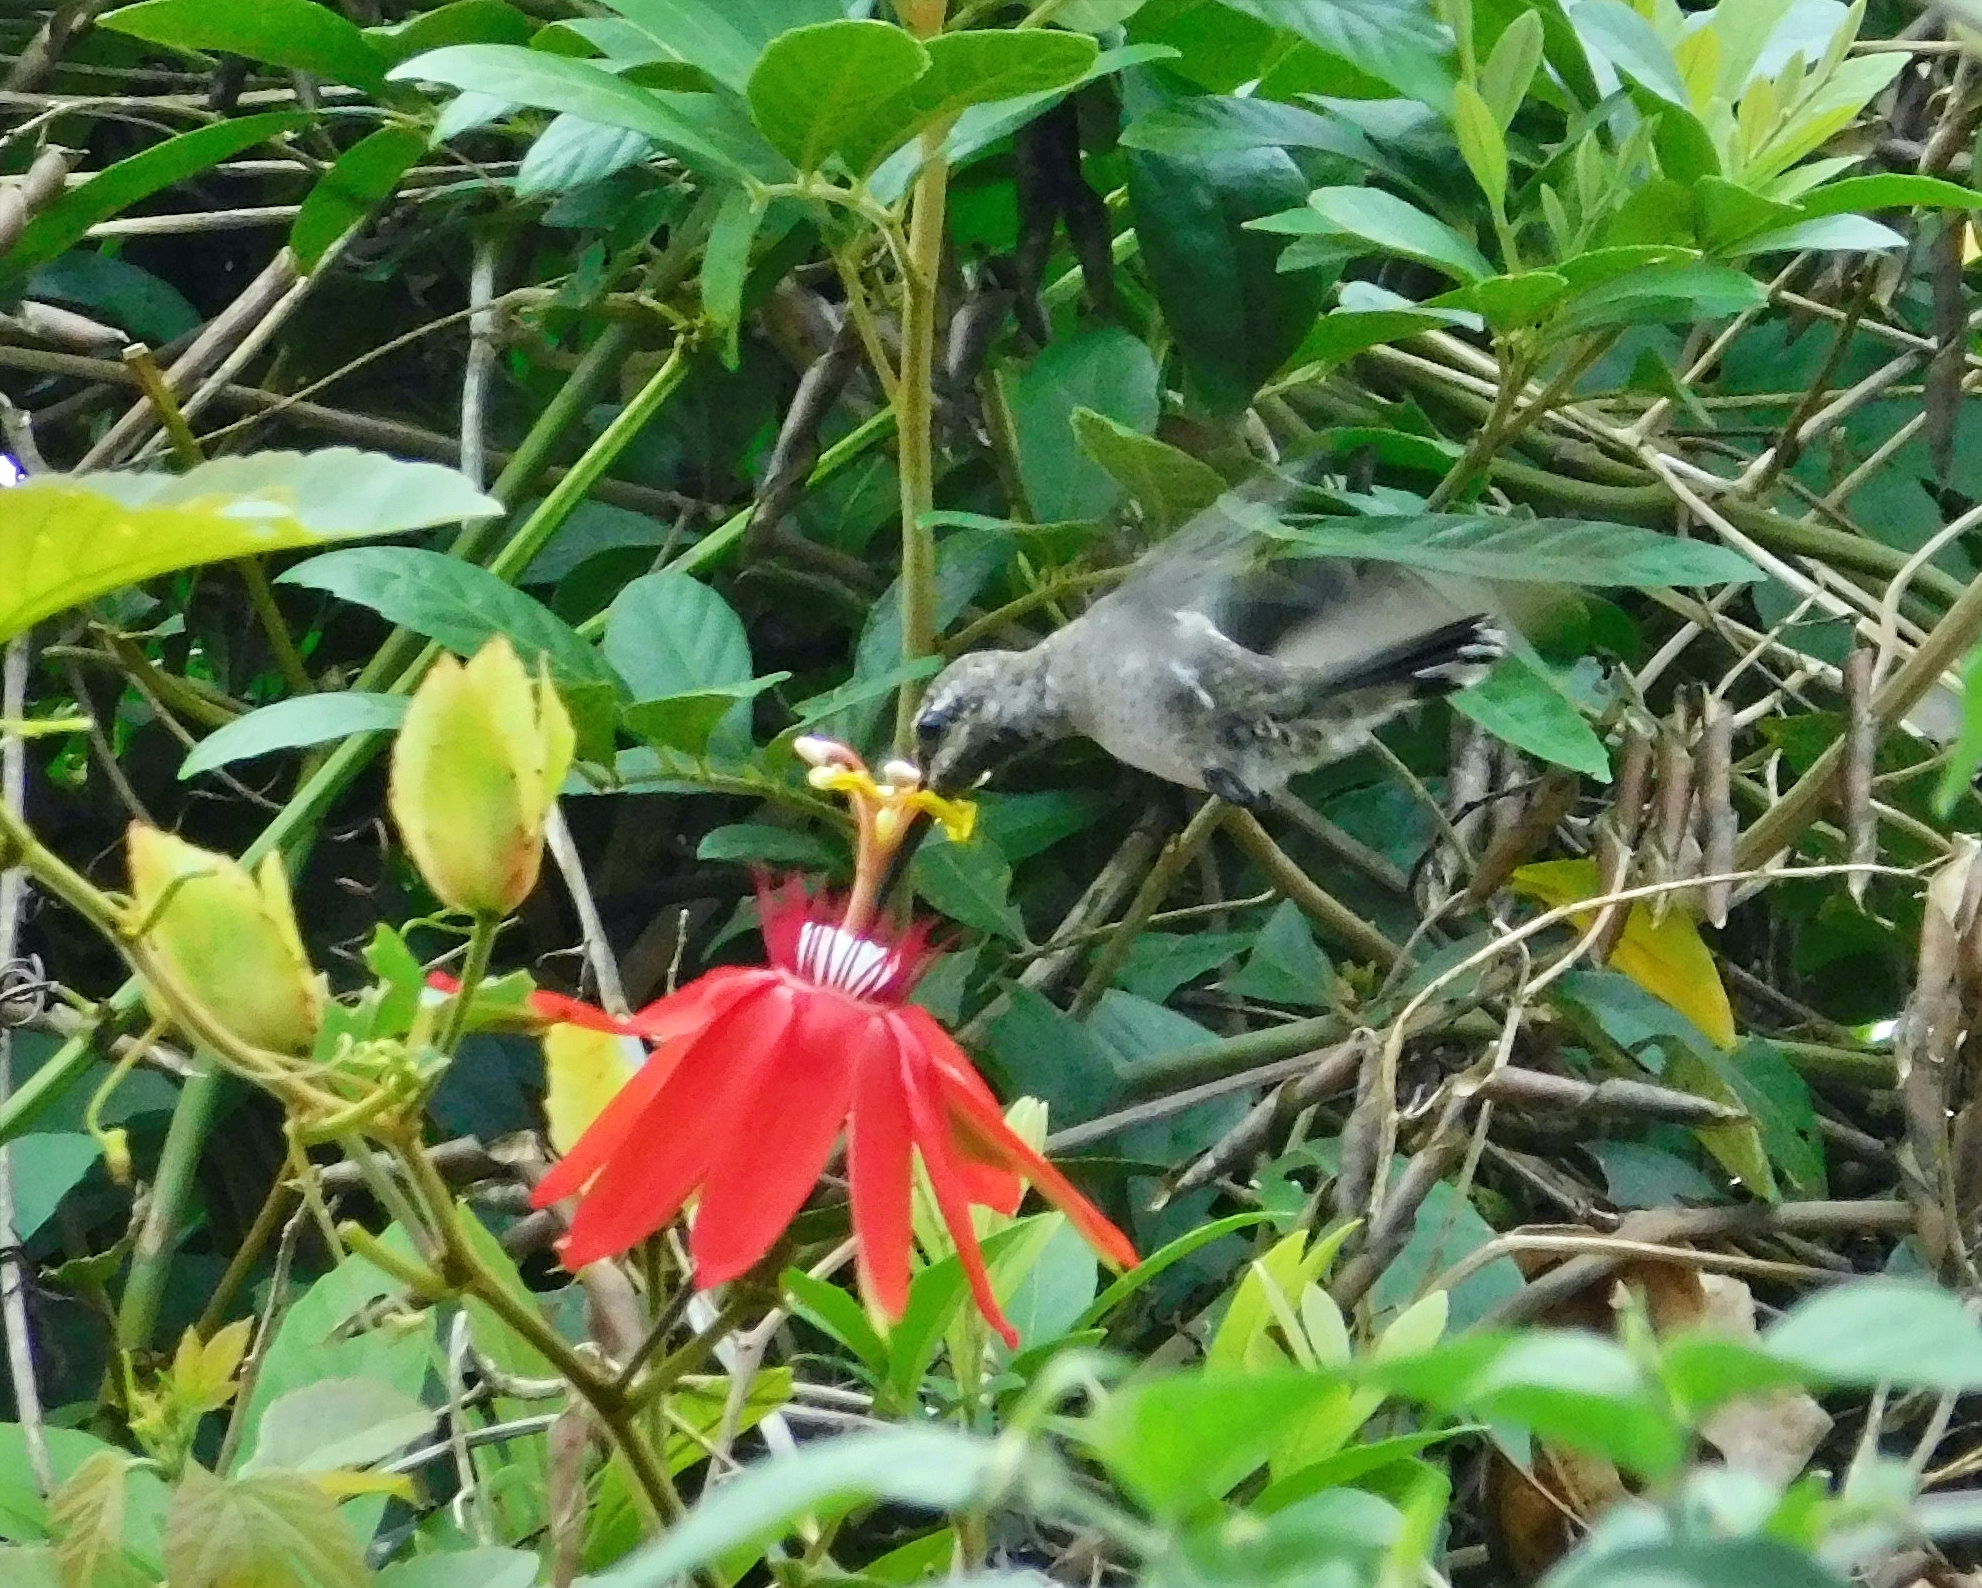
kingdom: Animalia
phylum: Chordata
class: Aves
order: Apodiformes
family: Trochilidae
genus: Heliomaster
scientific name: Heliomaster constantii
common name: Plain-capped starthroat
